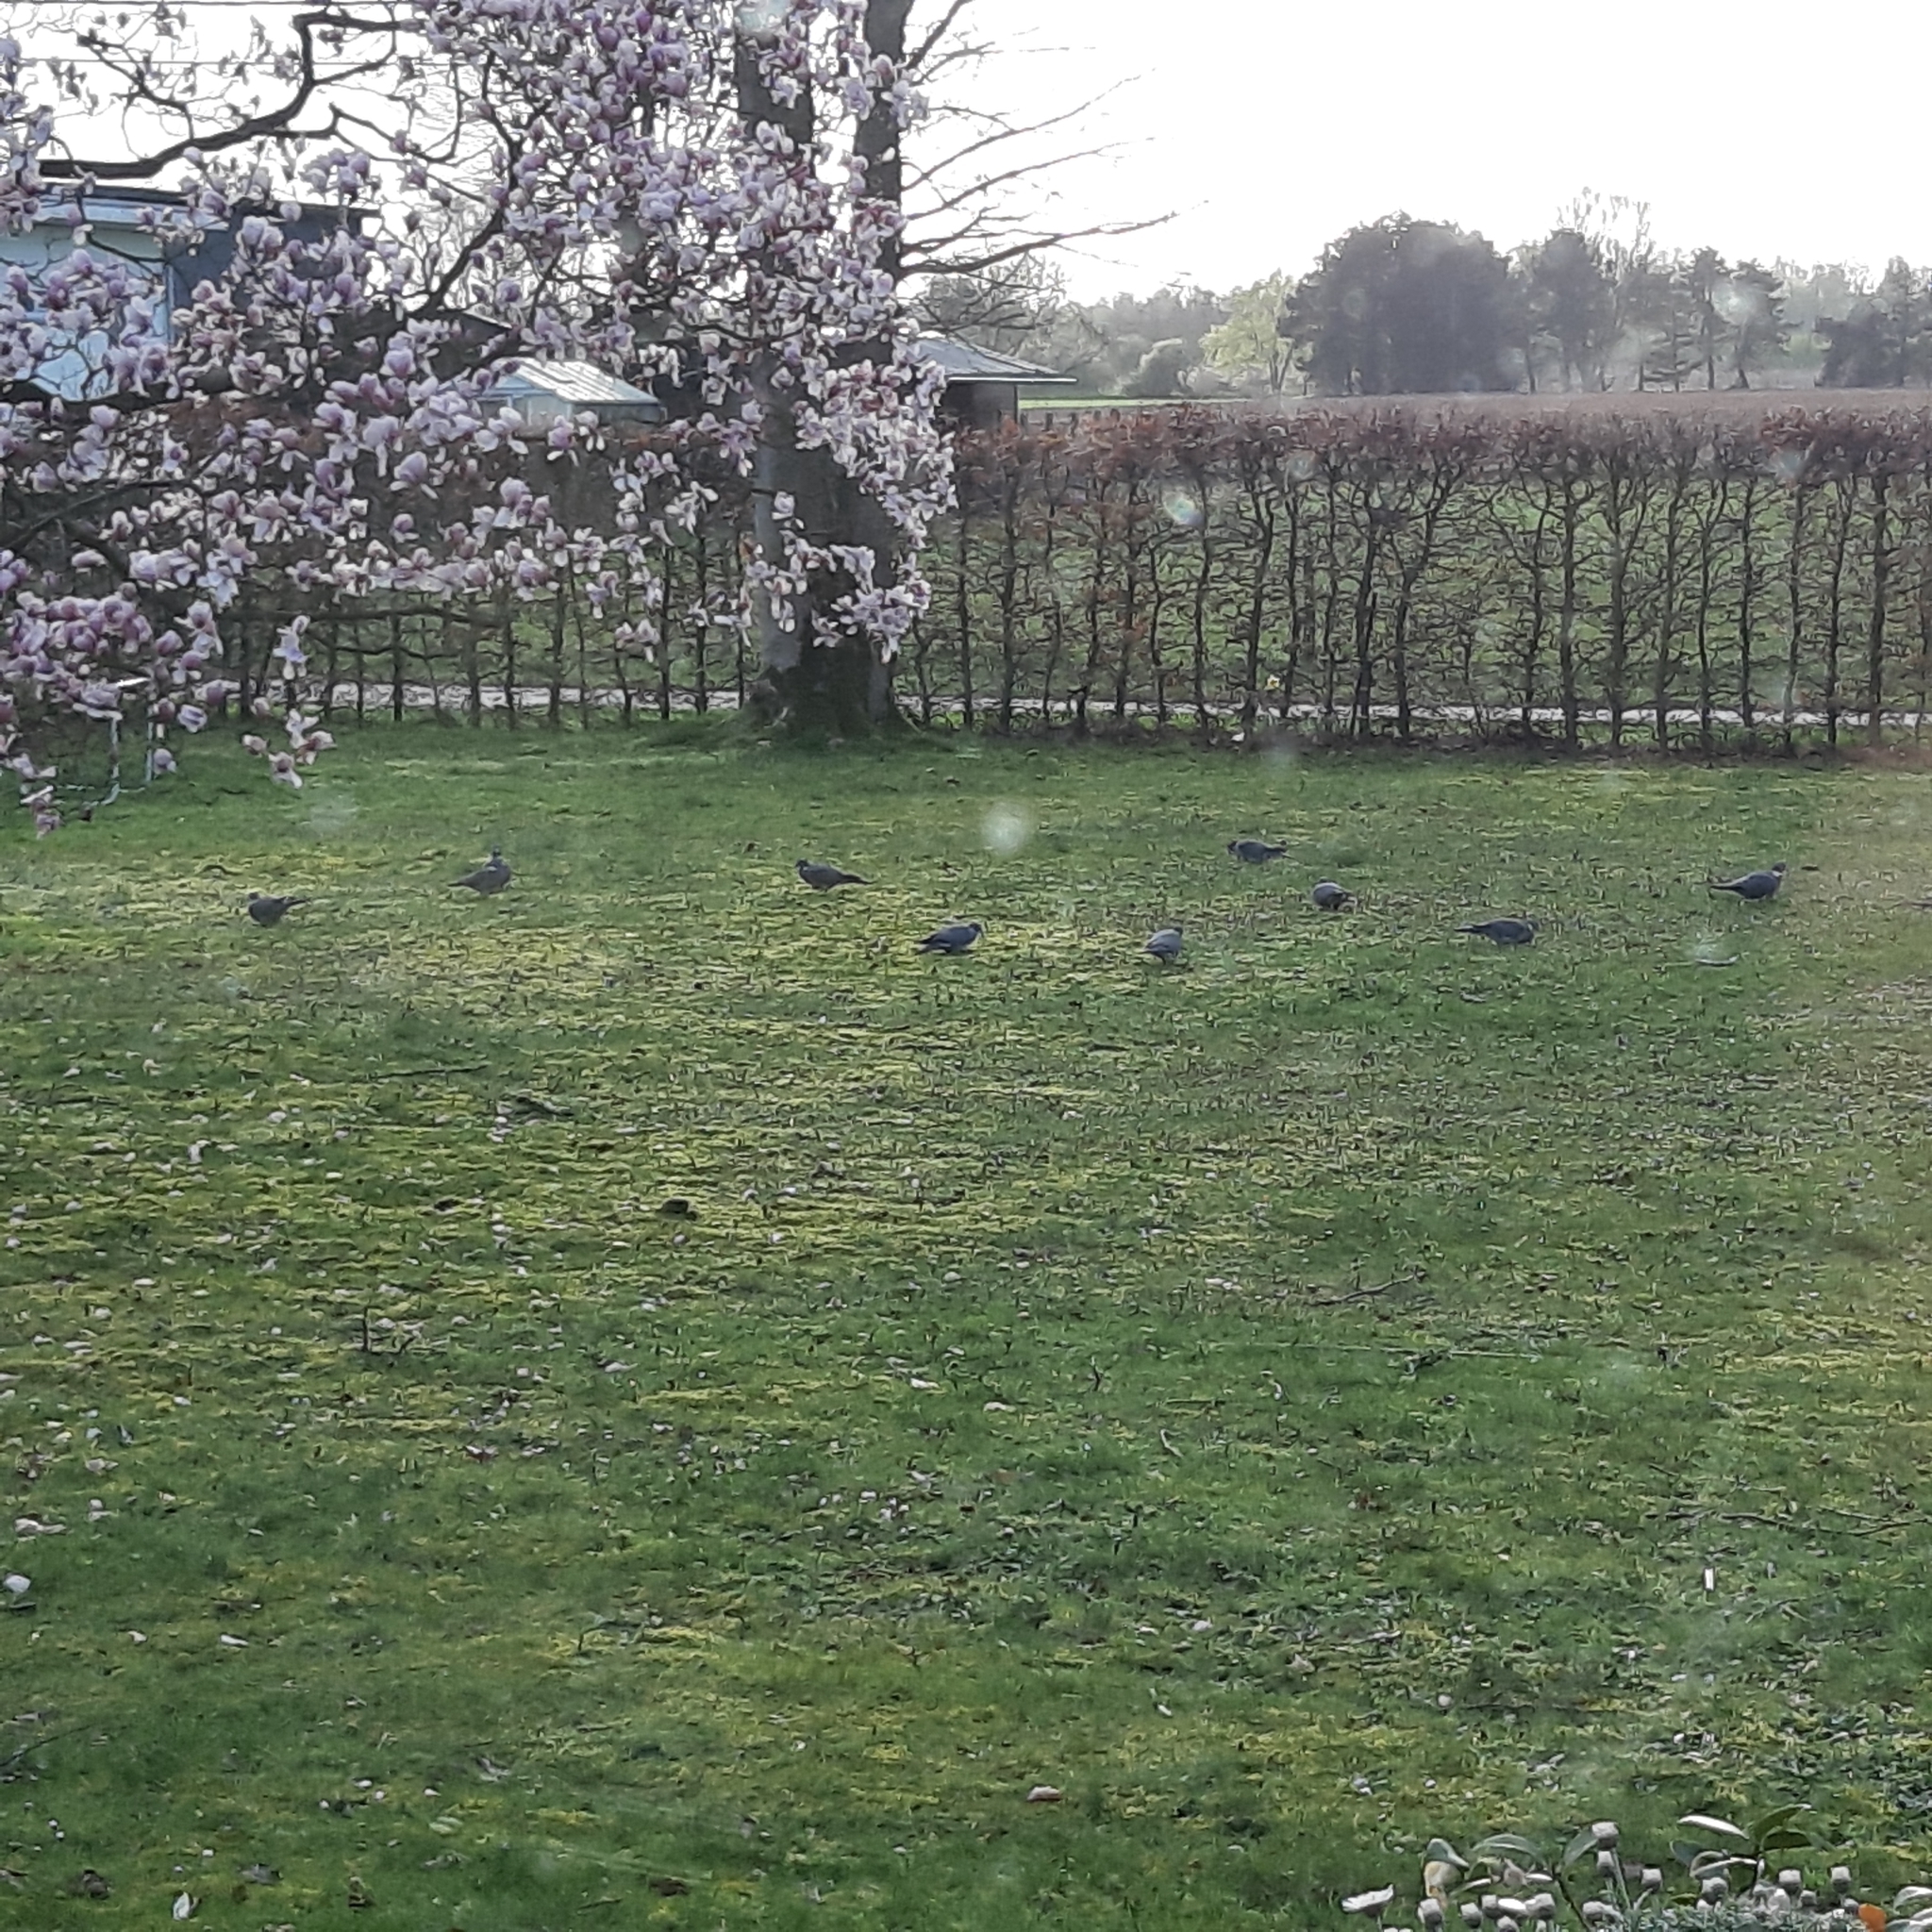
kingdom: Animalia
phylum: Chordata
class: Aves
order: Columbiformes
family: Columbidae
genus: Columba
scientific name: Columba palumbus
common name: Common wood pigeon
